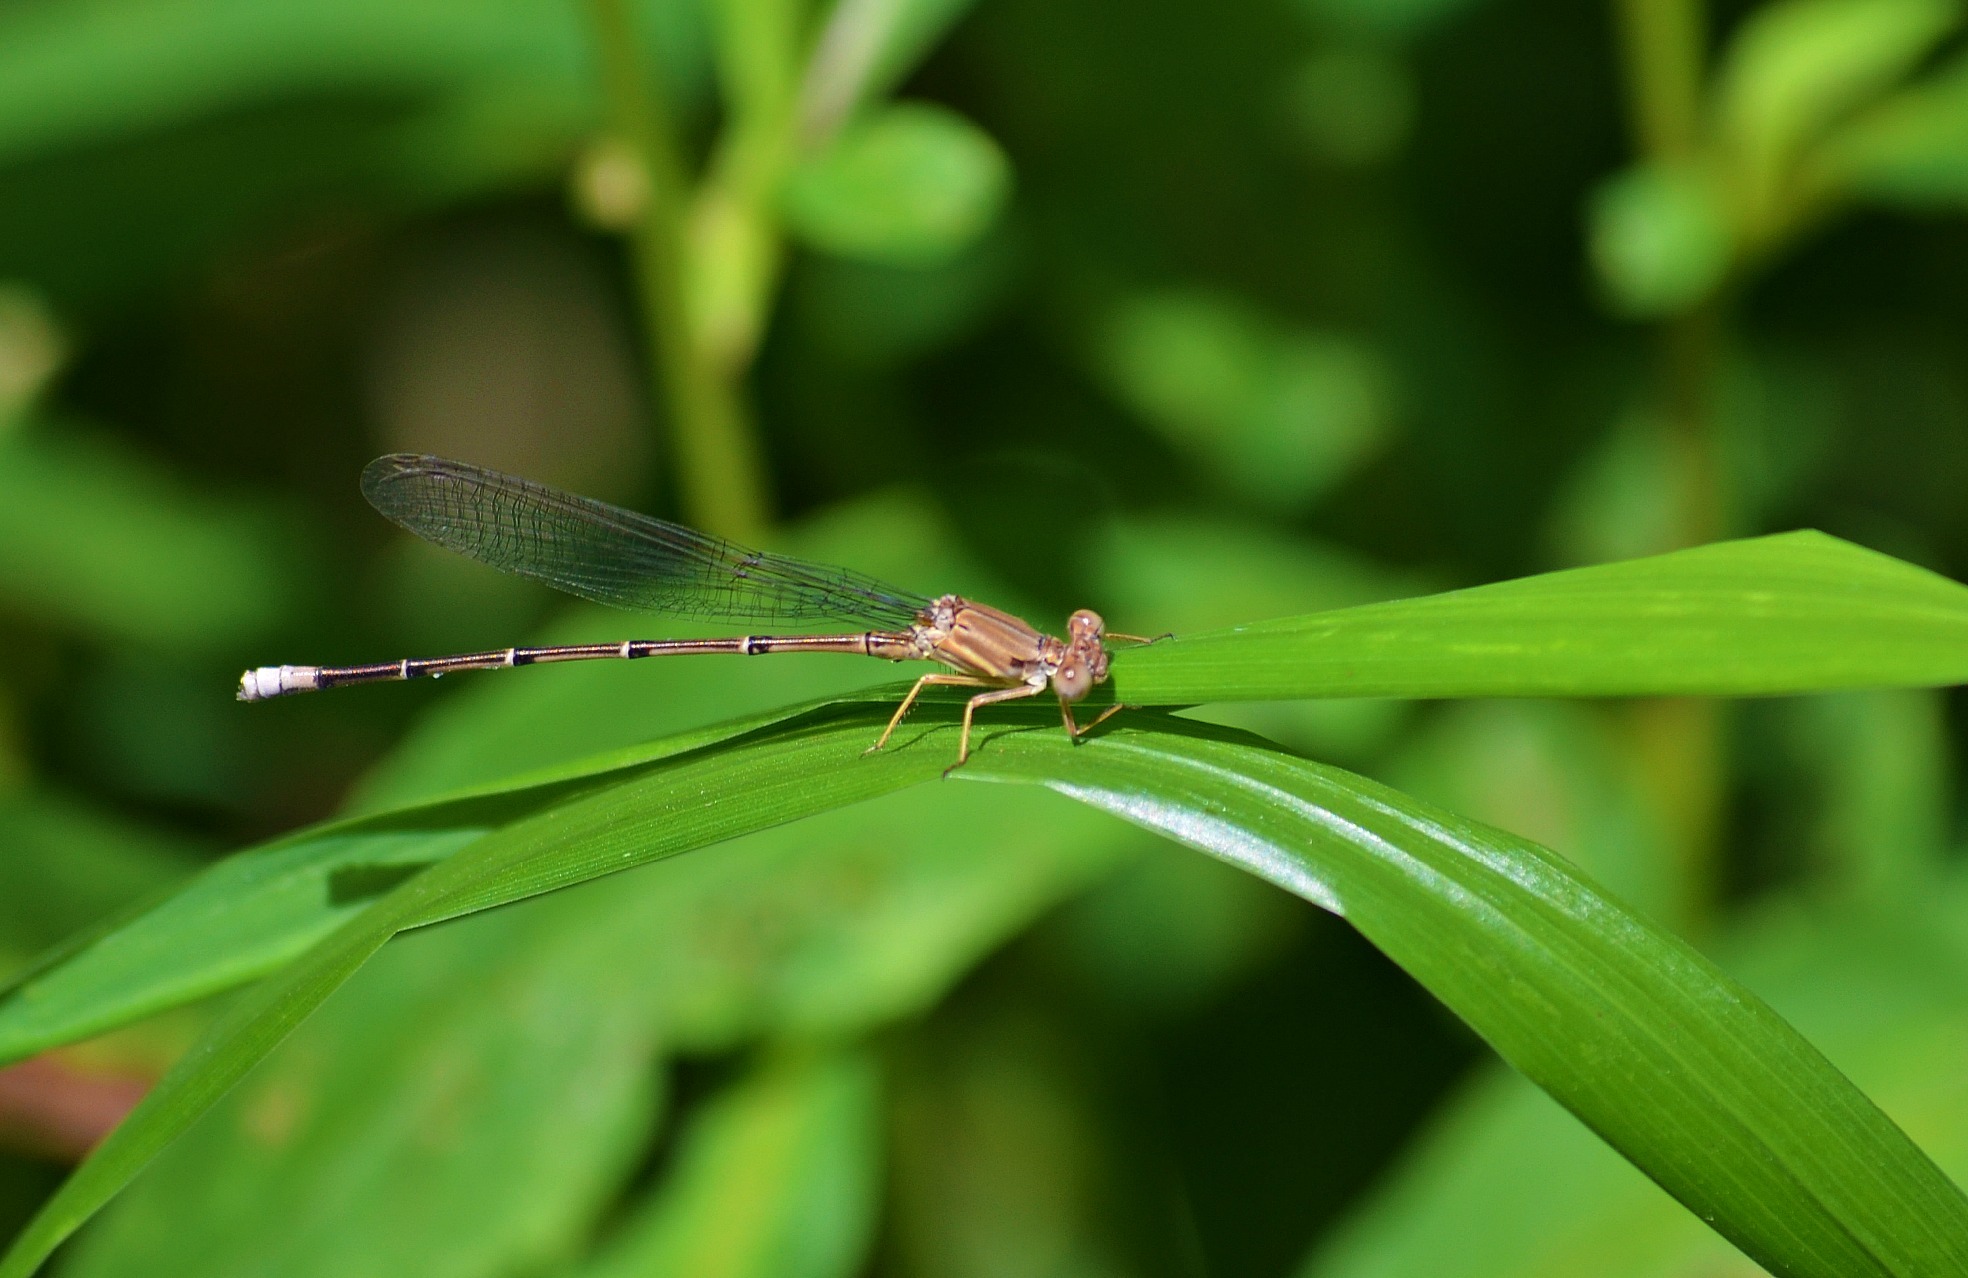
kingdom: Animalia
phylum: Arthropoda
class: Insecta
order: Odonata
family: Coenagrionidae
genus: Argia
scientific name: Argia apicalis
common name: Blue-fronted dancer
